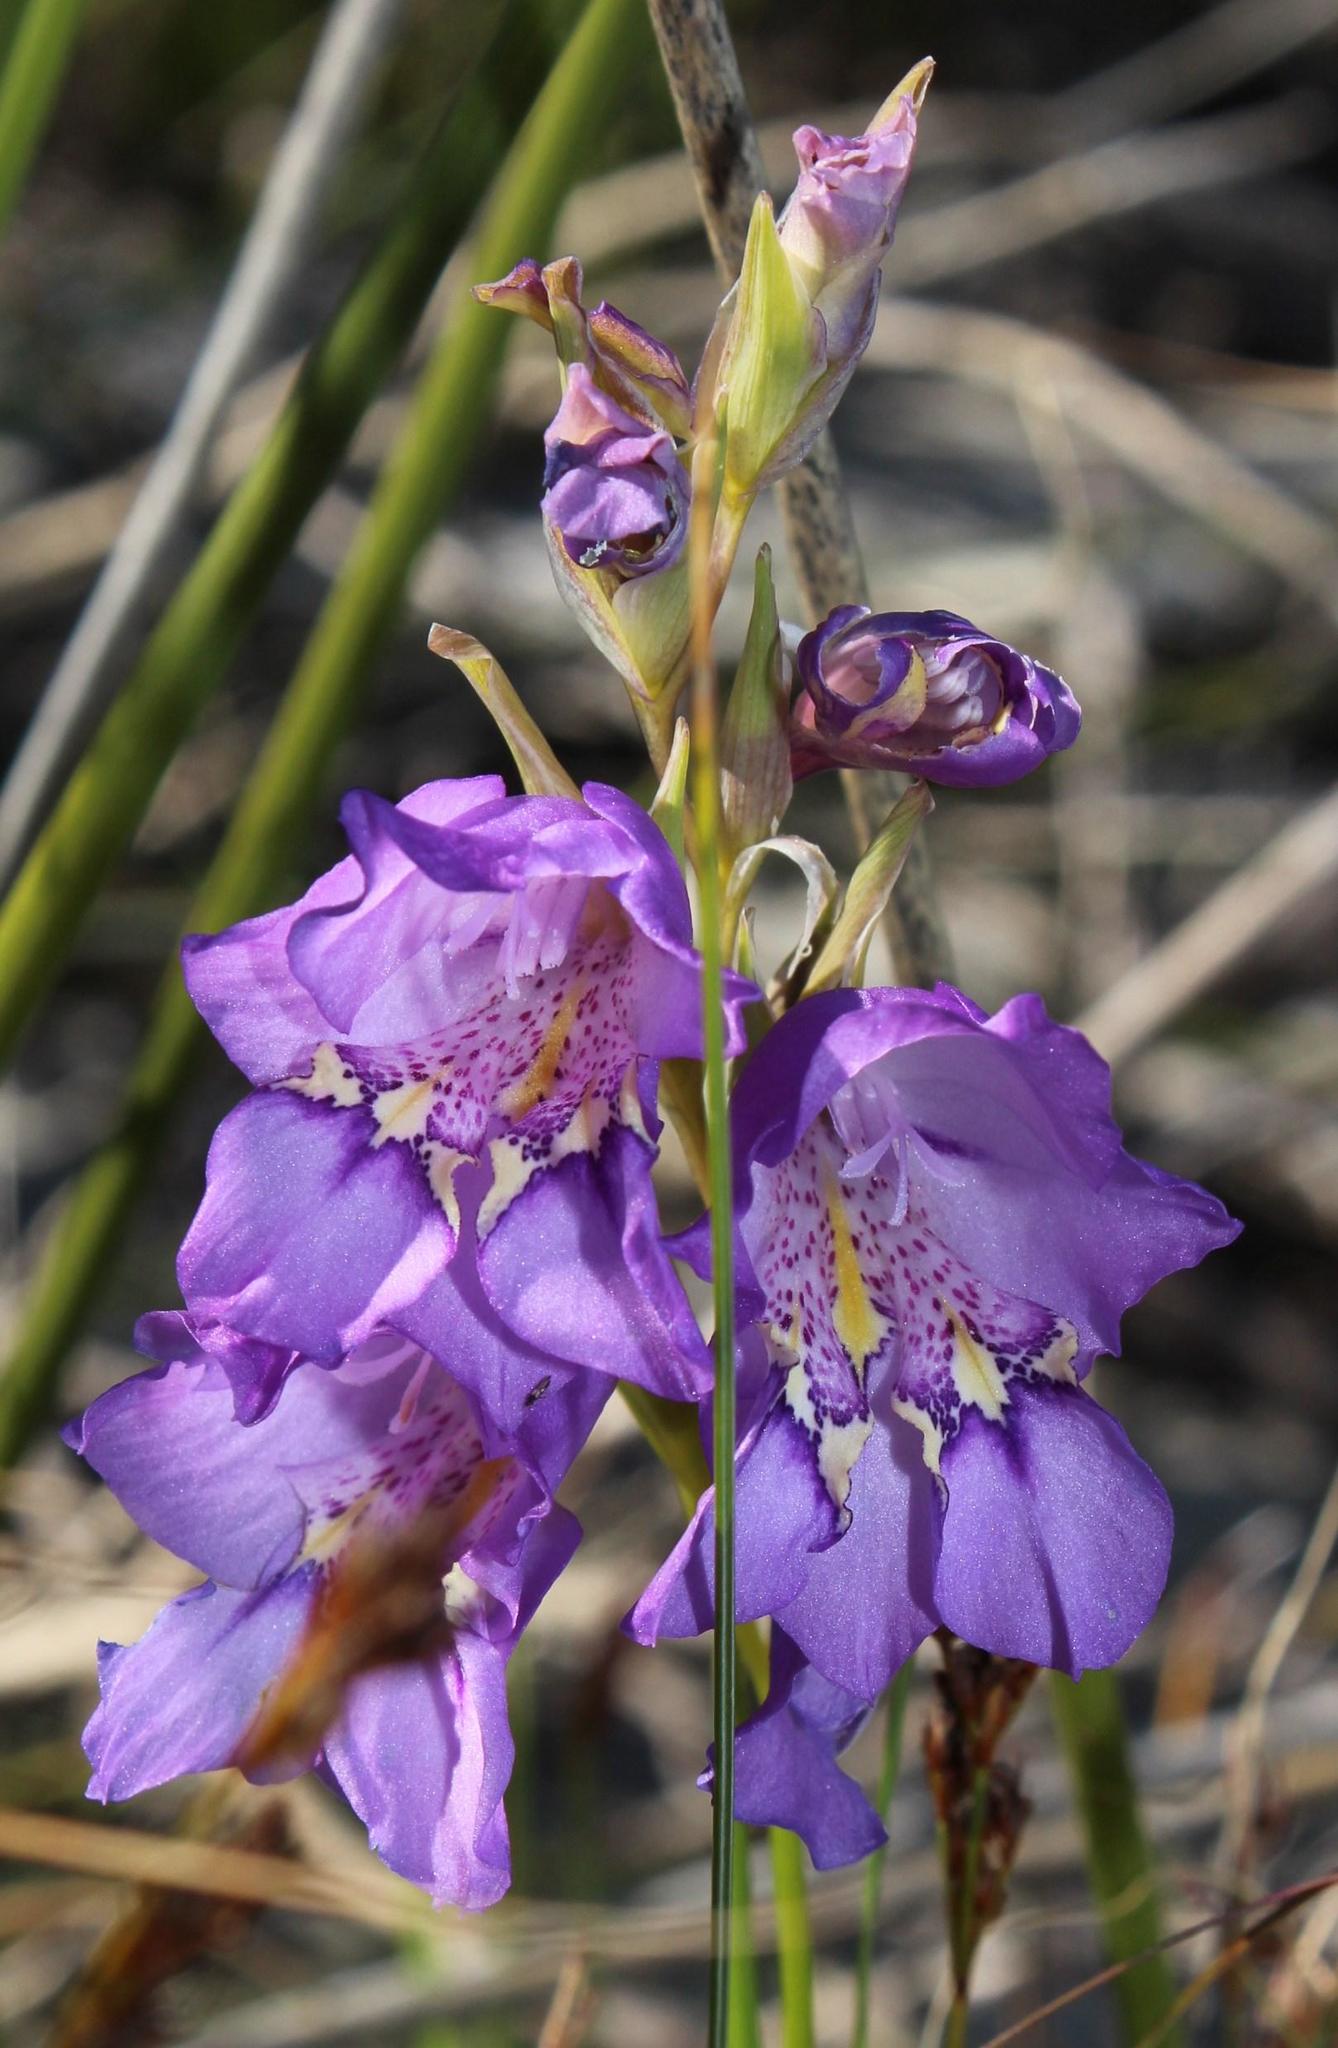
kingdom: Plantae
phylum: Tracheophyta
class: Liliopsida
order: Asparagales
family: Iridaceae
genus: Gladiolus
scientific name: Gladiolus rogersii
